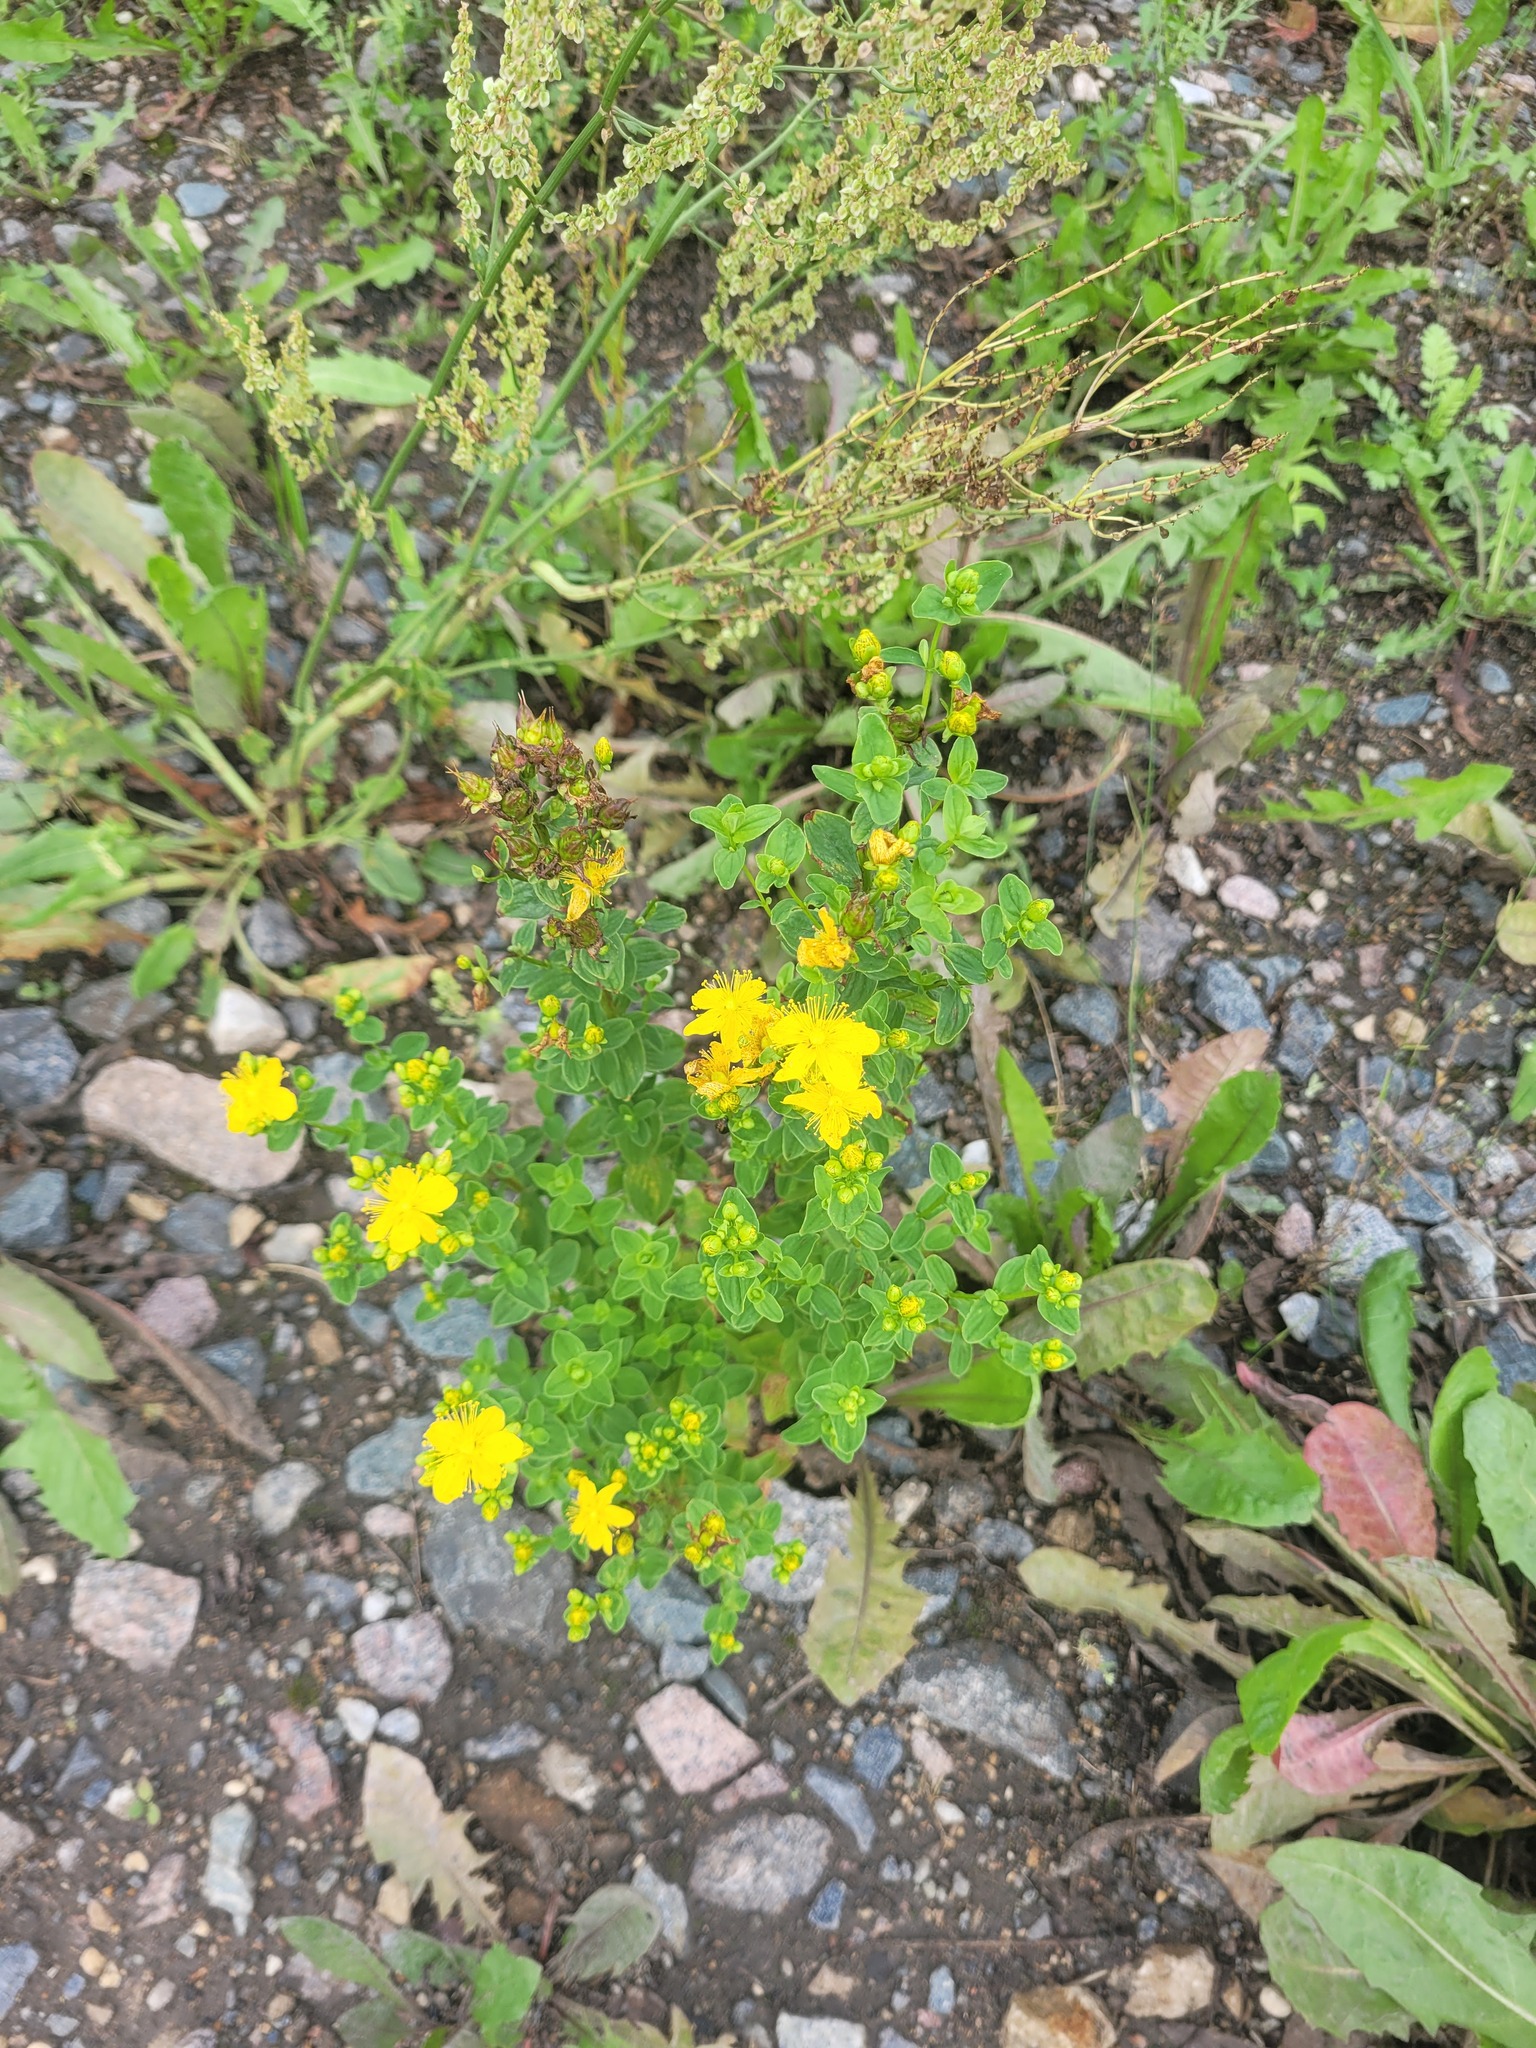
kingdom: Plantae
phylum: Tracheophyta
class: Magnoliopsida
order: Malpighiales
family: Hypericaceae
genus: Hypericum
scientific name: Hypericum maculatum
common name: Imperforate st. john's-wort
